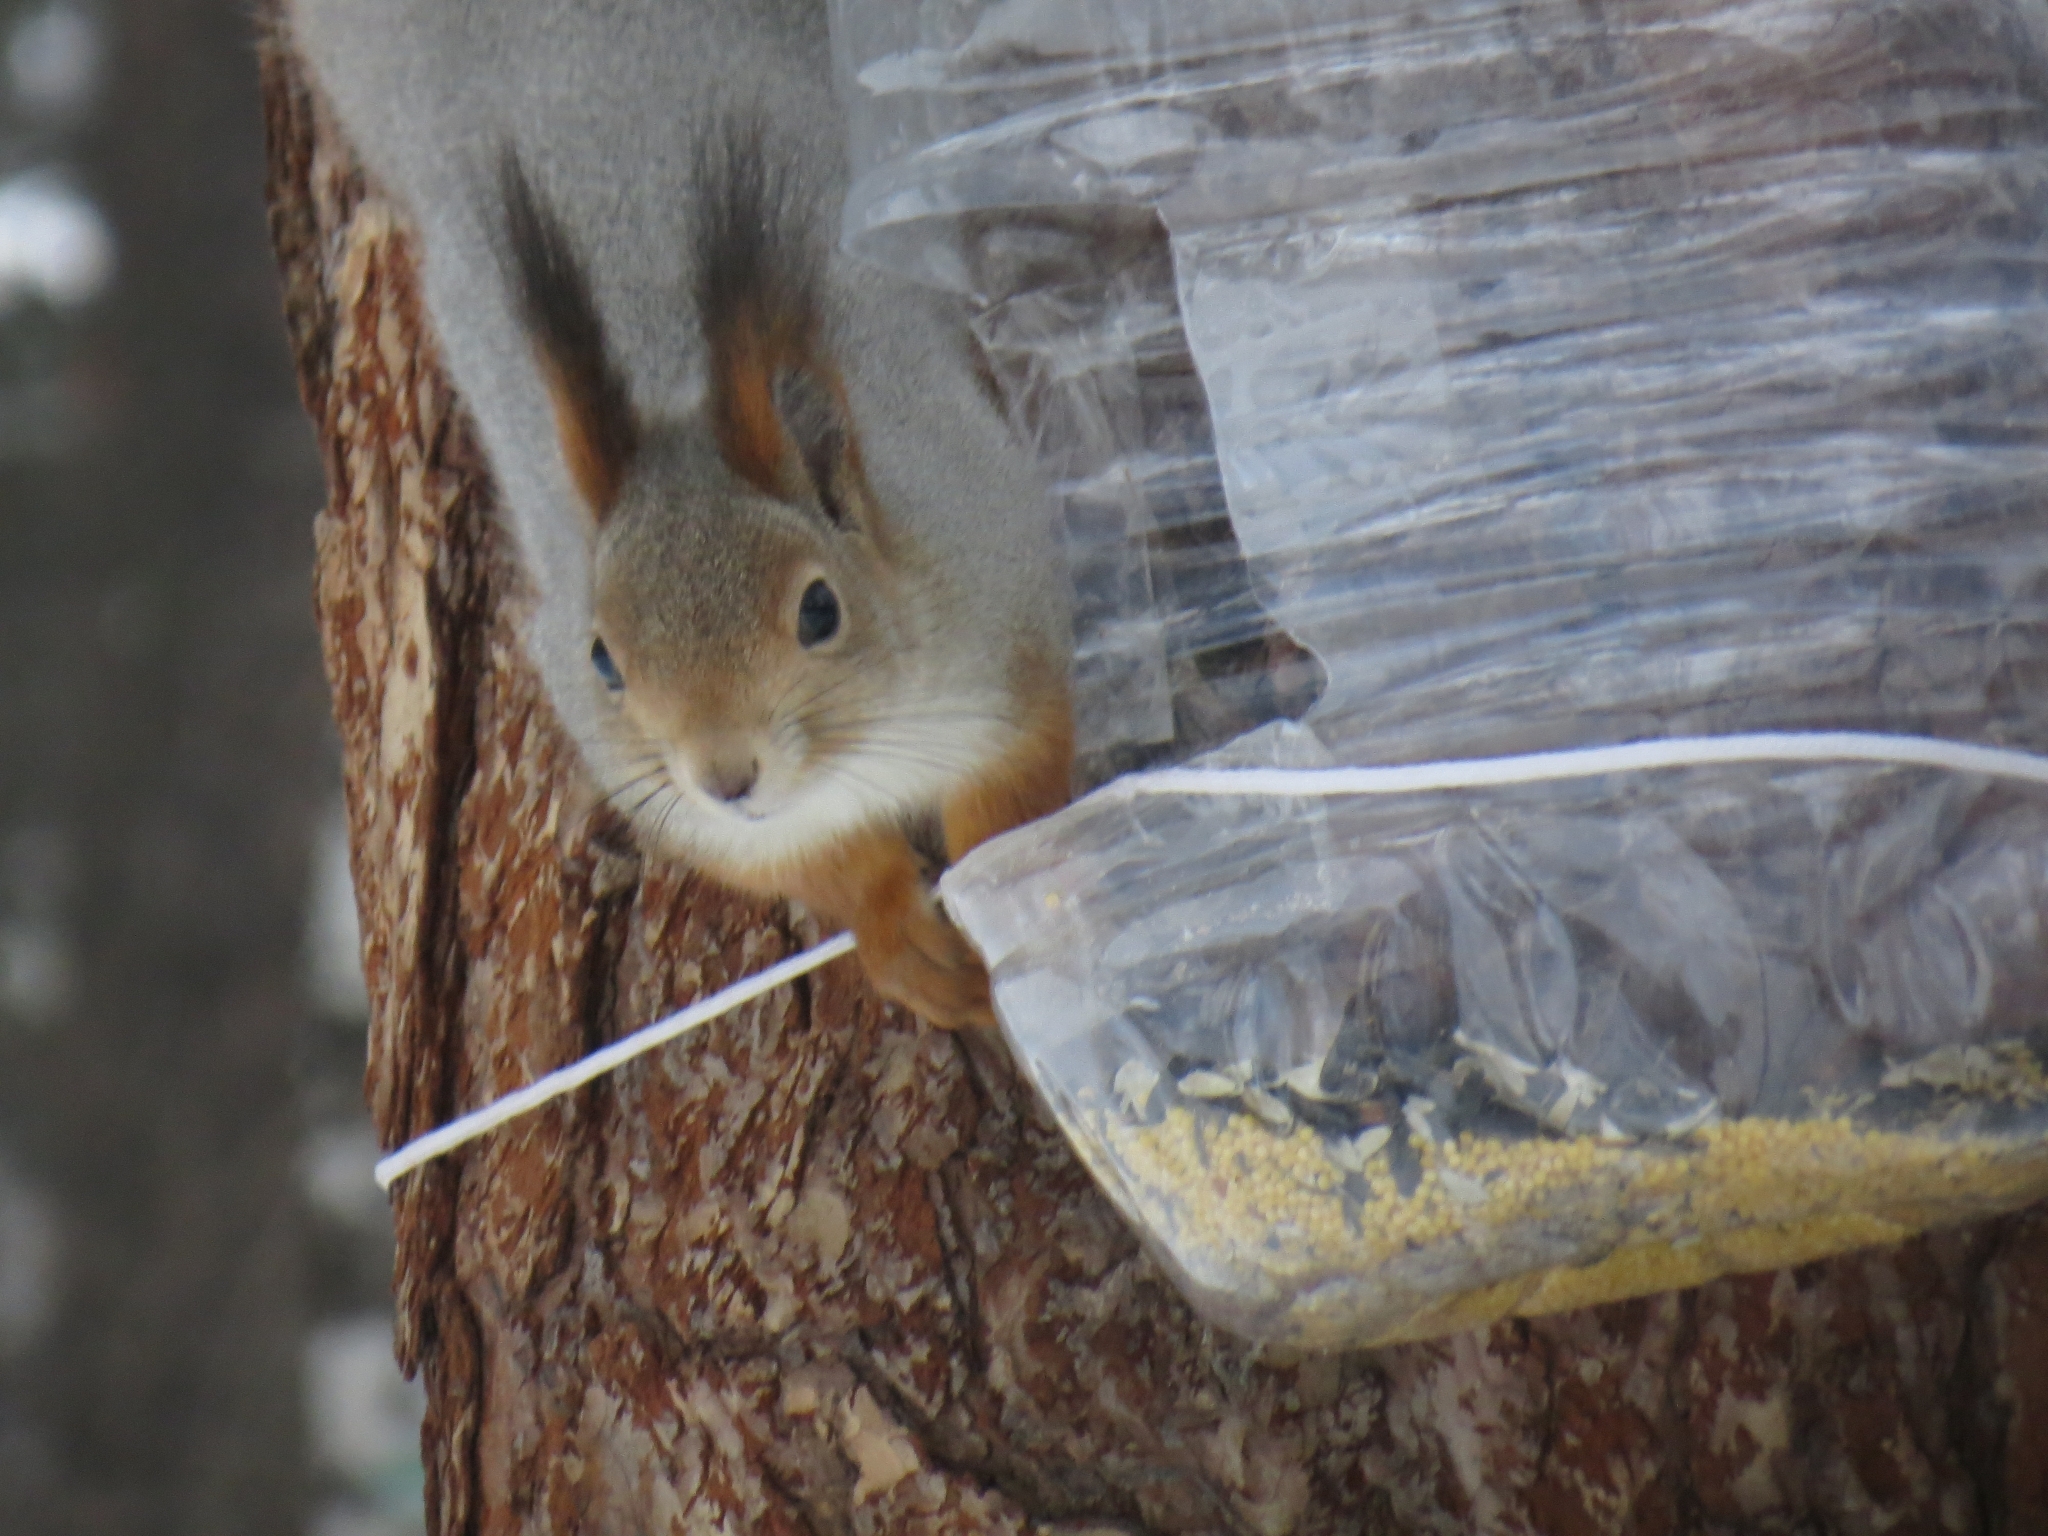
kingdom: Animalia
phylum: Chordata
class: Mammalia
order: Rodentia
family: Sciuridae
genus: Sciurus
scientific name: Sciurus vulgaris
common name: Eurasian red squirrel
